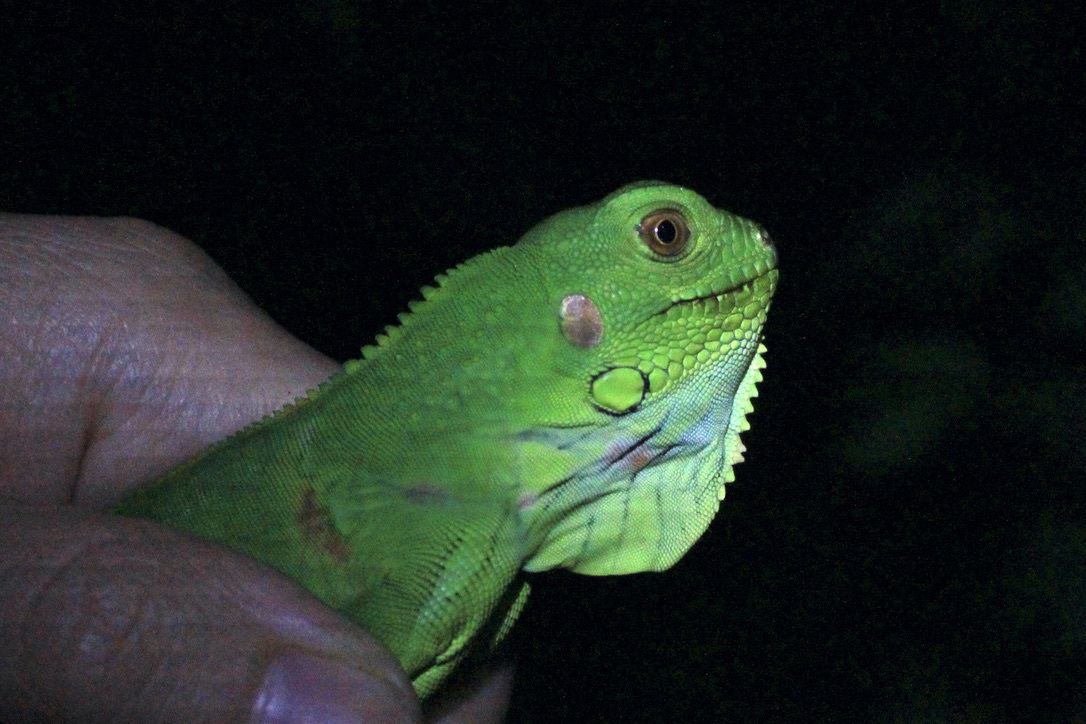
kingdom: Animalia
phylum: Chordata
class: Squamata
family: Iguanidae
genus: Iguana
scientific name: Iguana iguana
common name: Green iguana
